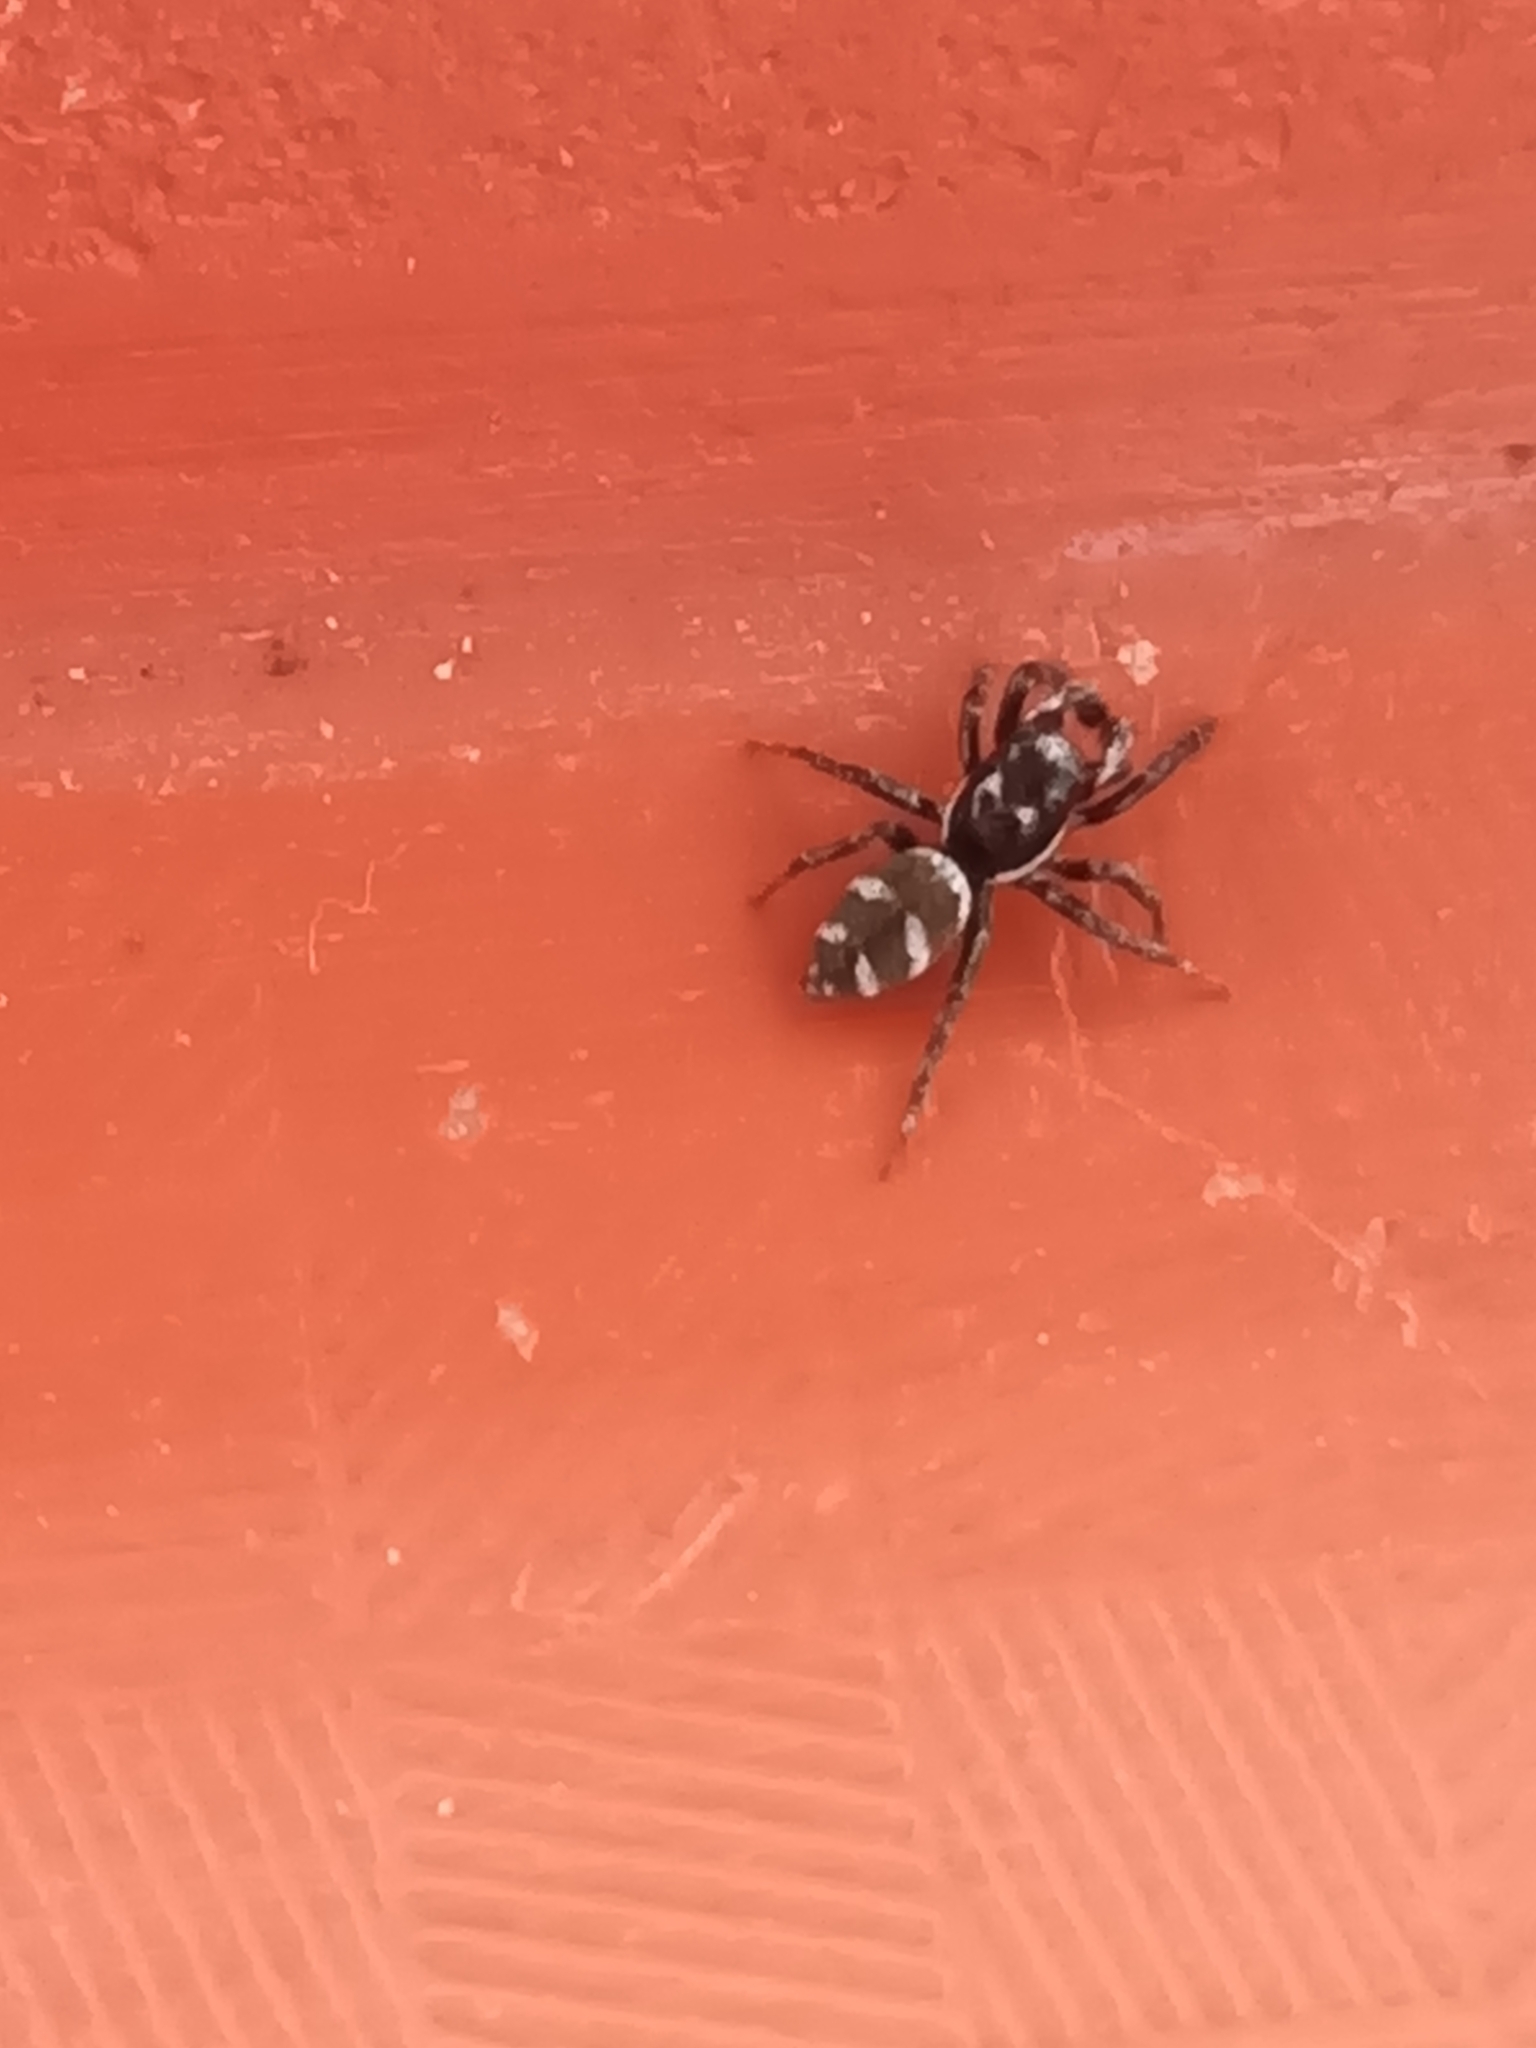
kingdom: Animalia
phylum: Arthropoda
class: Arachnida
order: Araneae
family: Salticidae
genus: Salticus
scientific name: Salticus scenicus
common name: Zebra jumper
